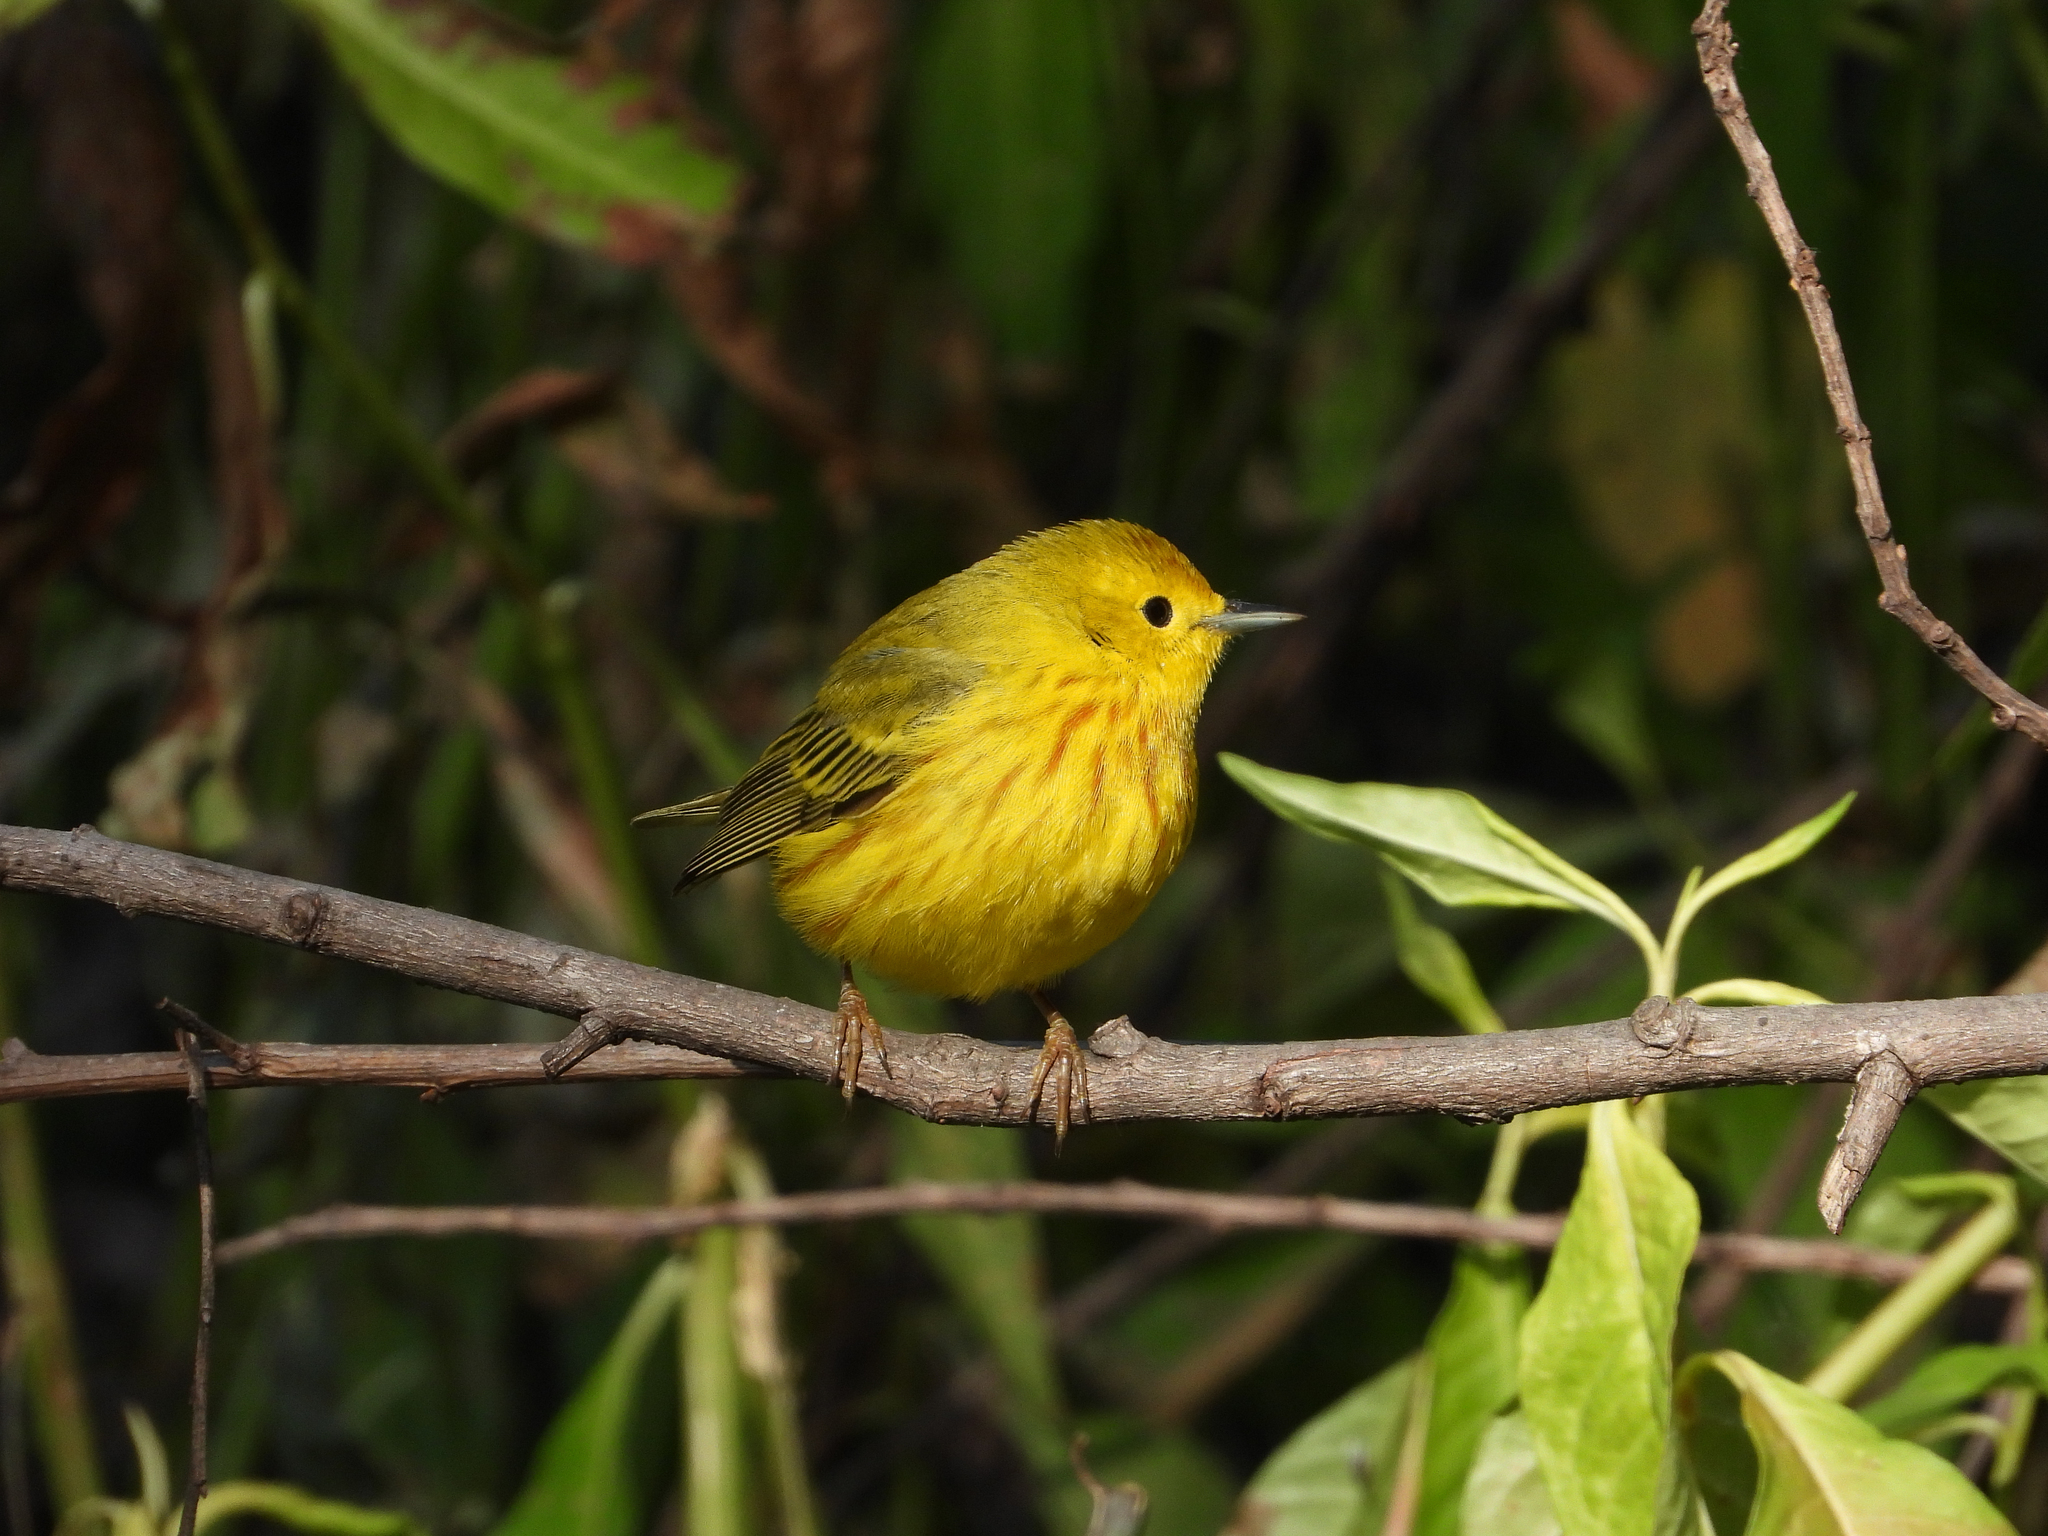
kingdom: Animalia
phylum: Chordata
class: Aves
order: Passeriformes
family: Parulidae
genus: Setophaga
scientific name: Setophaga petechia
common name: Yellow warbler
